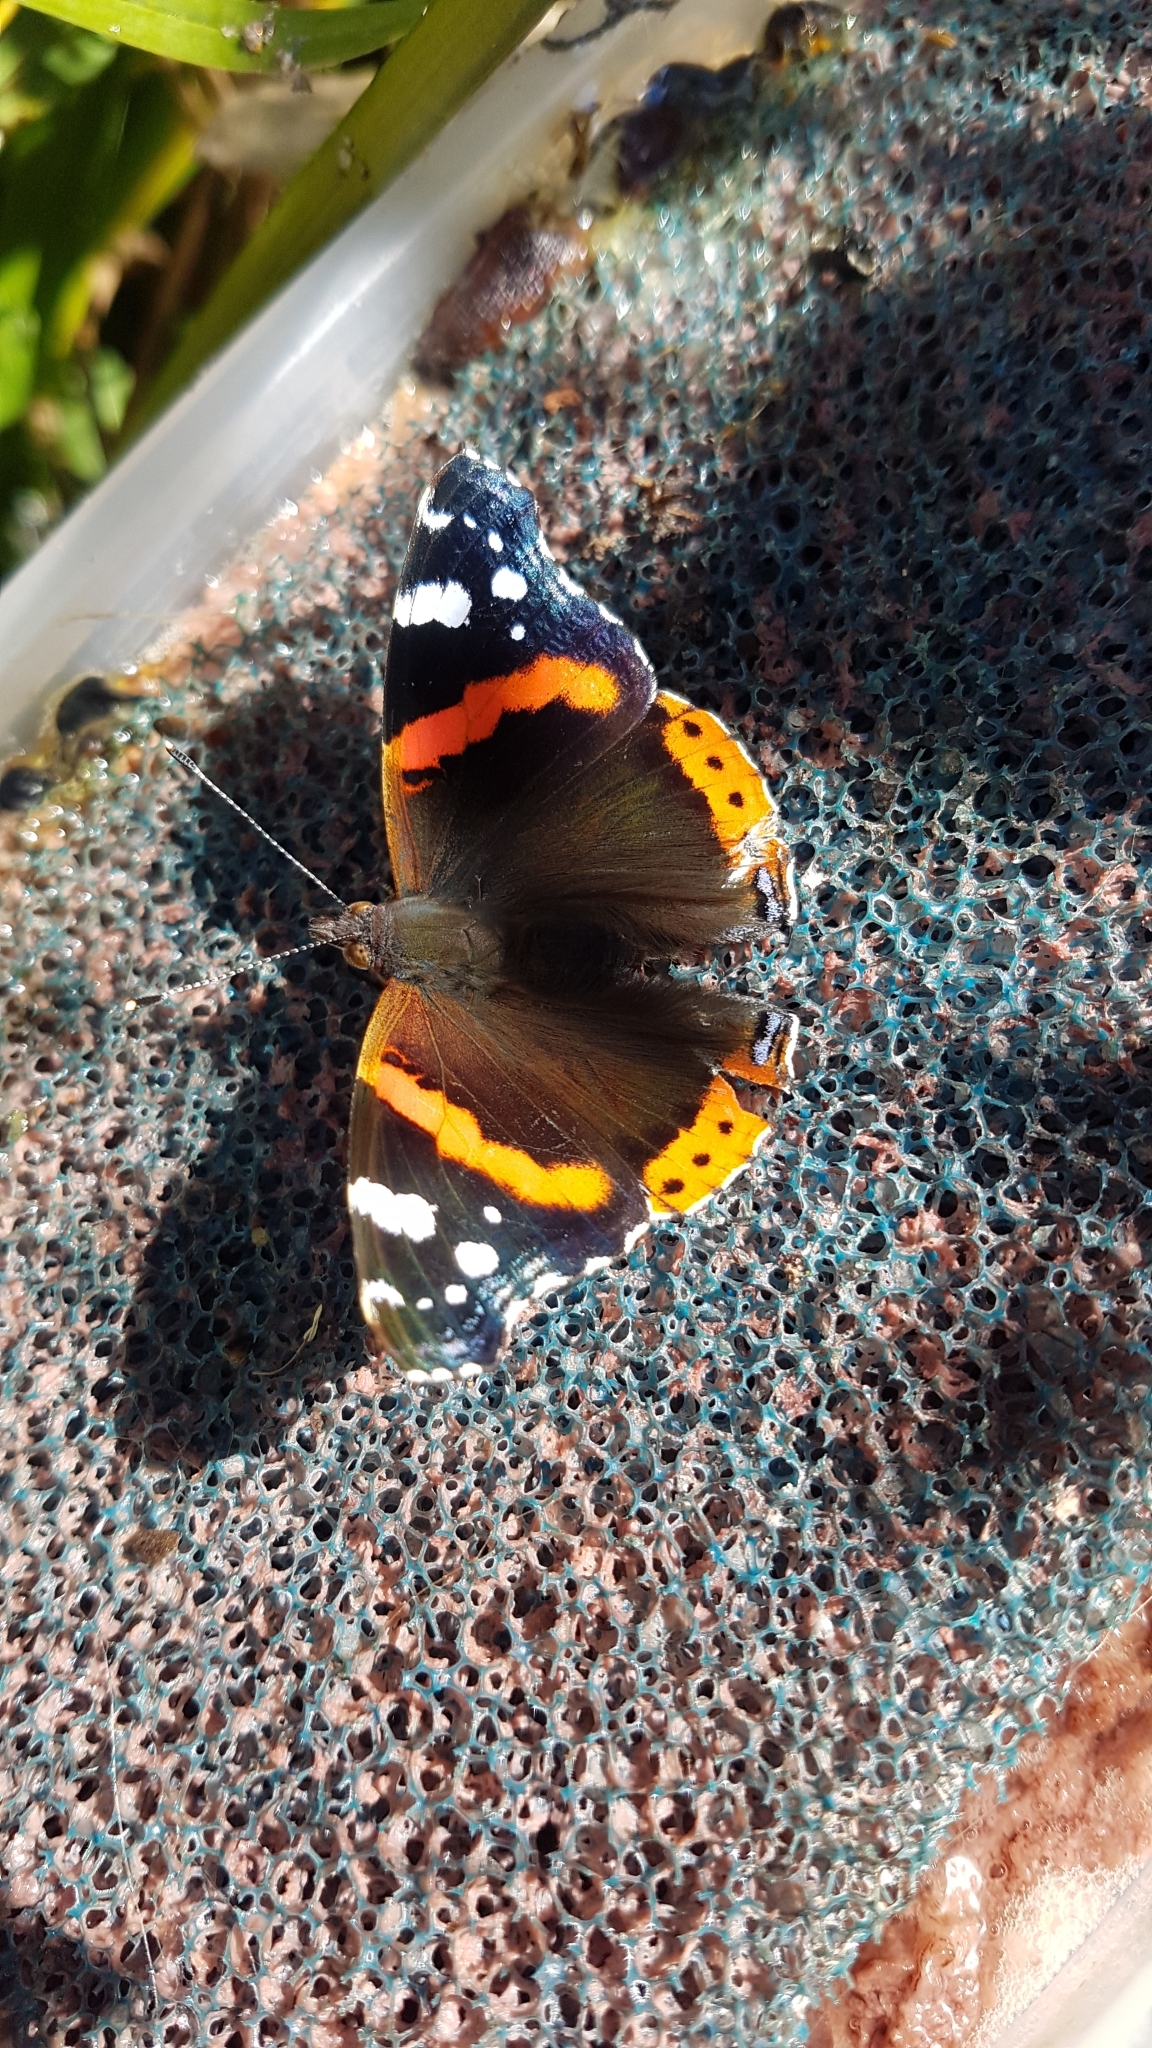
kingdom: Animalia
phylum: Arthropoda
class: Insecta
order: Lepidoptera
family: Nymphalidae
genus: Vanessa
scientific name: Vanessa atalanta
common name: Red admiral
